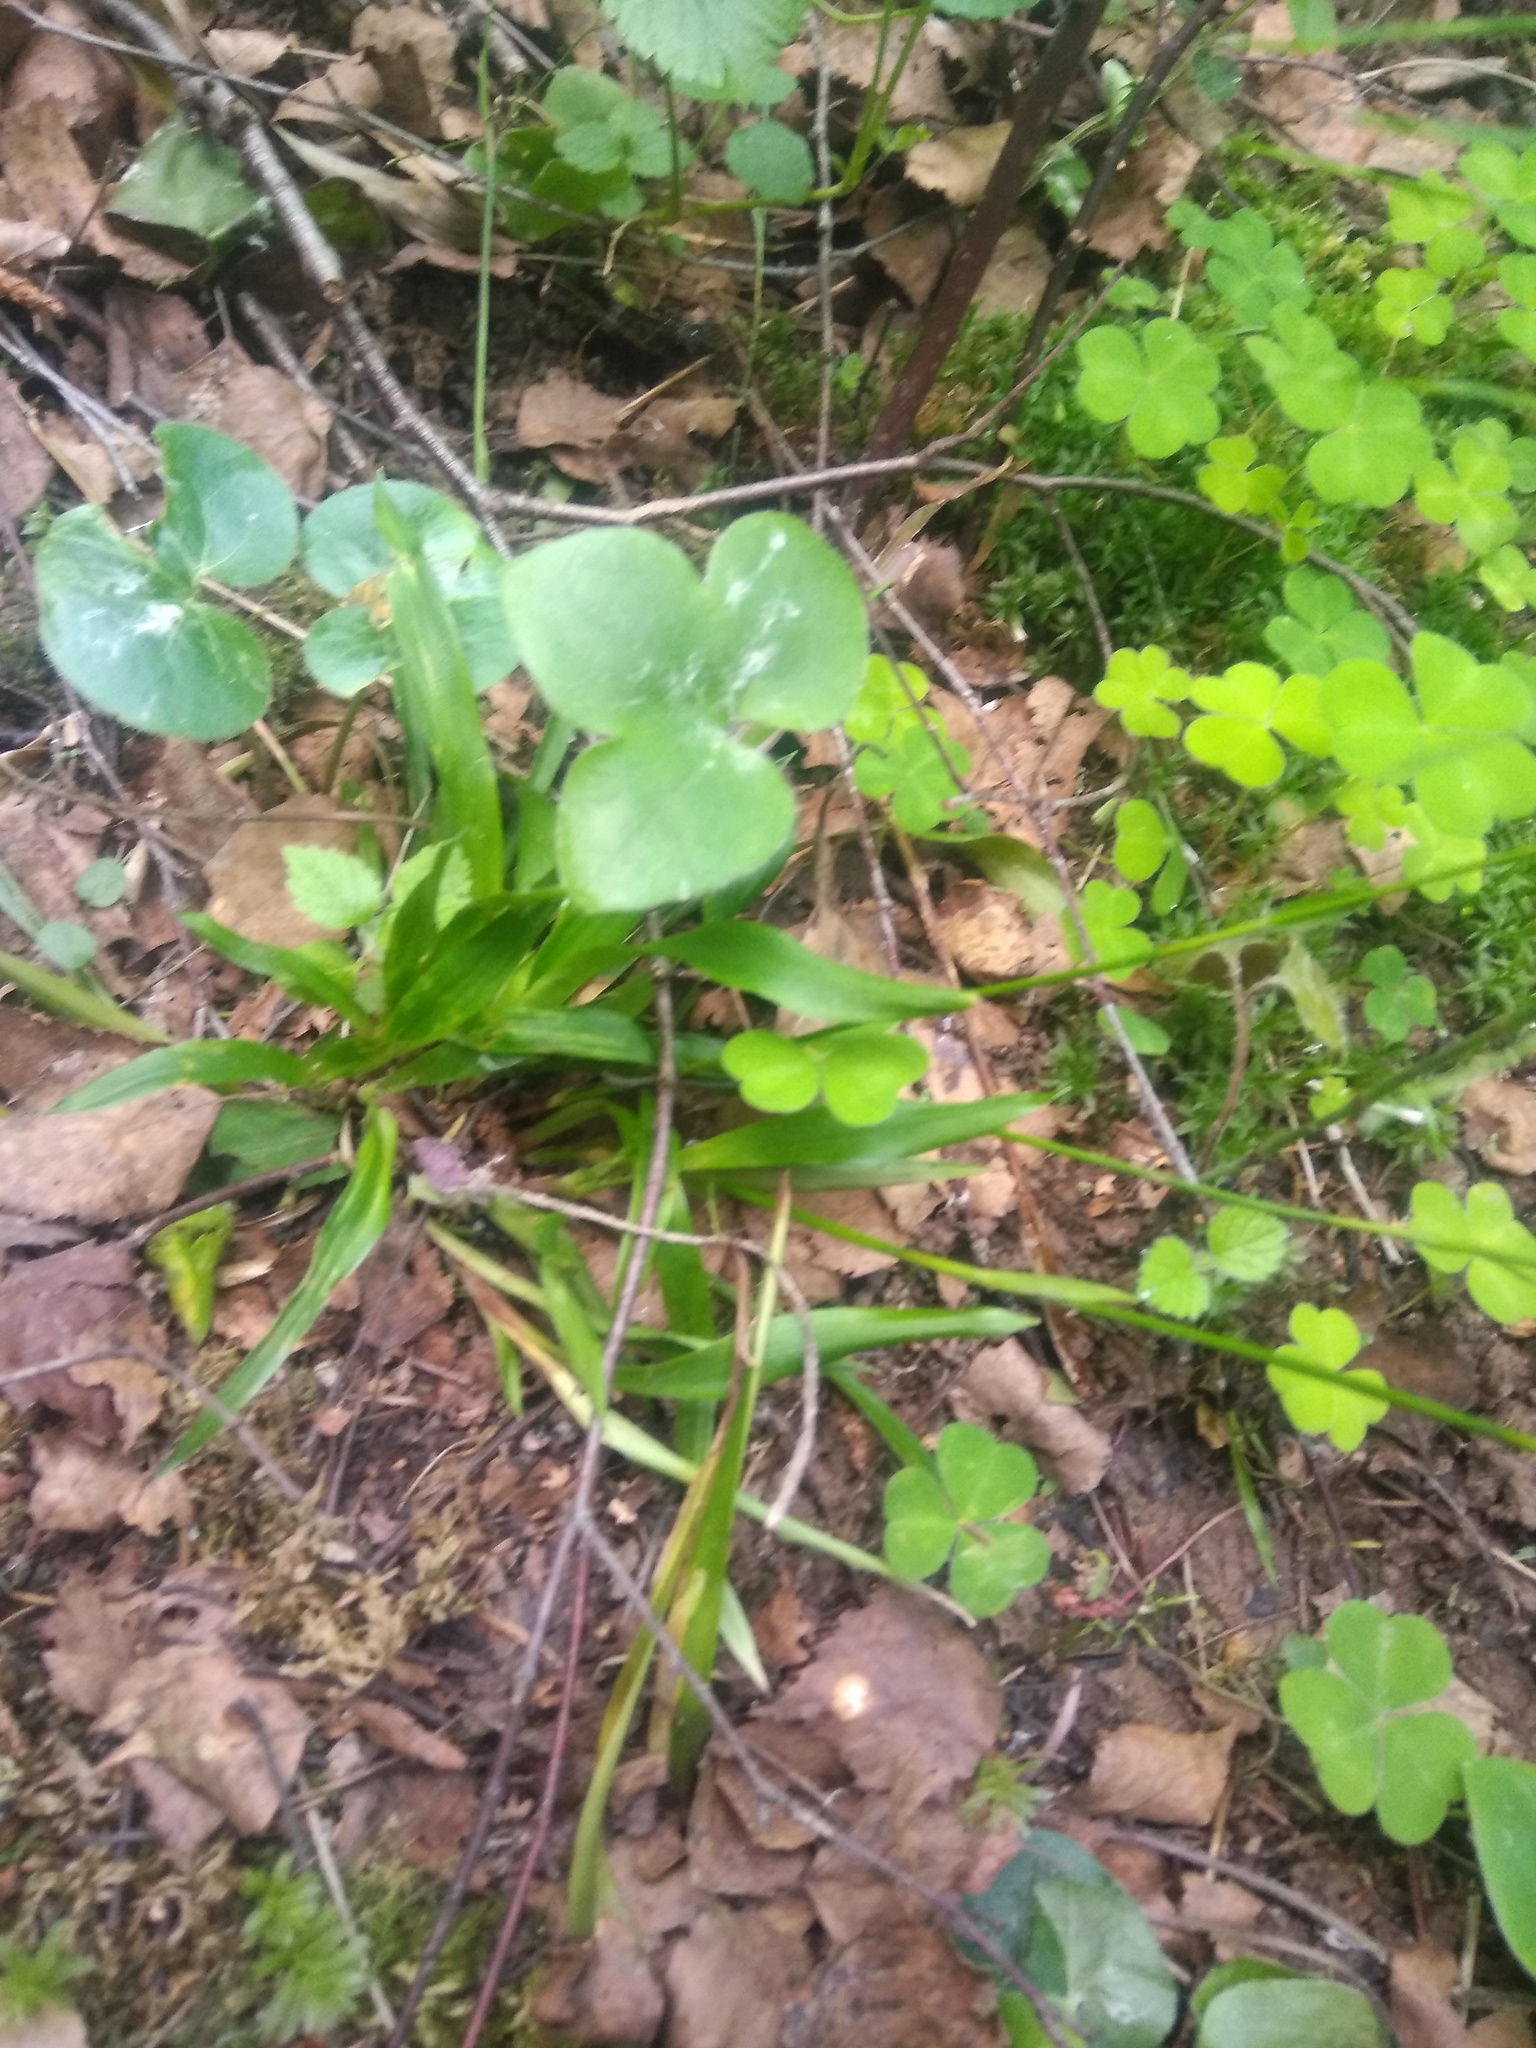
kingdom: Plantae
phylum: Tracheophyta
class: Liliopsida
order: Poales
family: Juncaceae
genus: Luzula
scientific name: Luzula pilosa
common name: Hairy wood-rush
